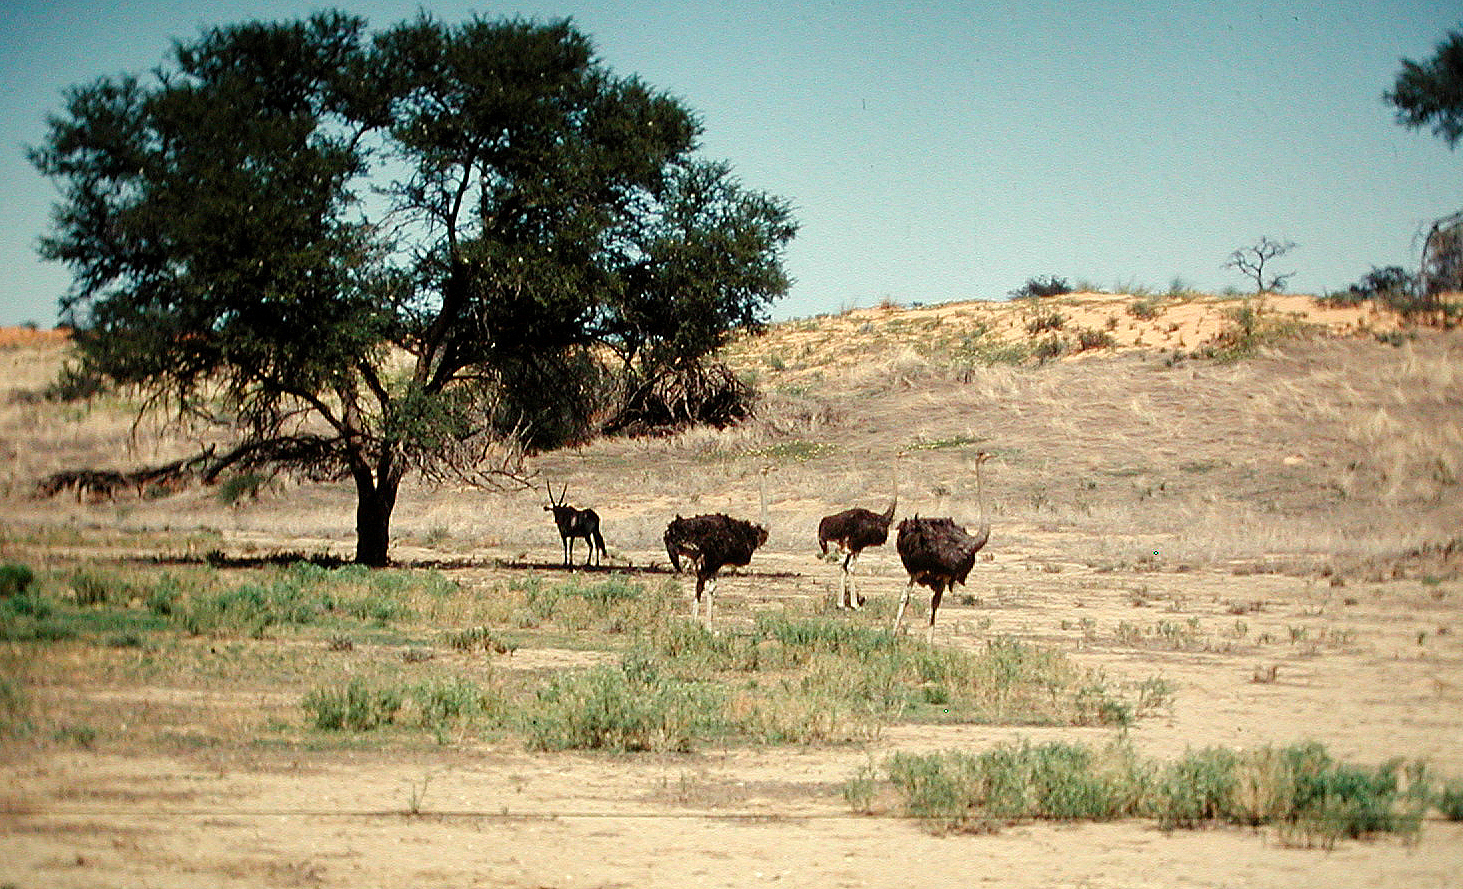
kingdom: Animalia
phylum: Chordata
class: Aves
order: Struthioniformes
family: Struthionidae
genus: Struthio
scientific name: Struthio camelus
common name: Common ostrich
